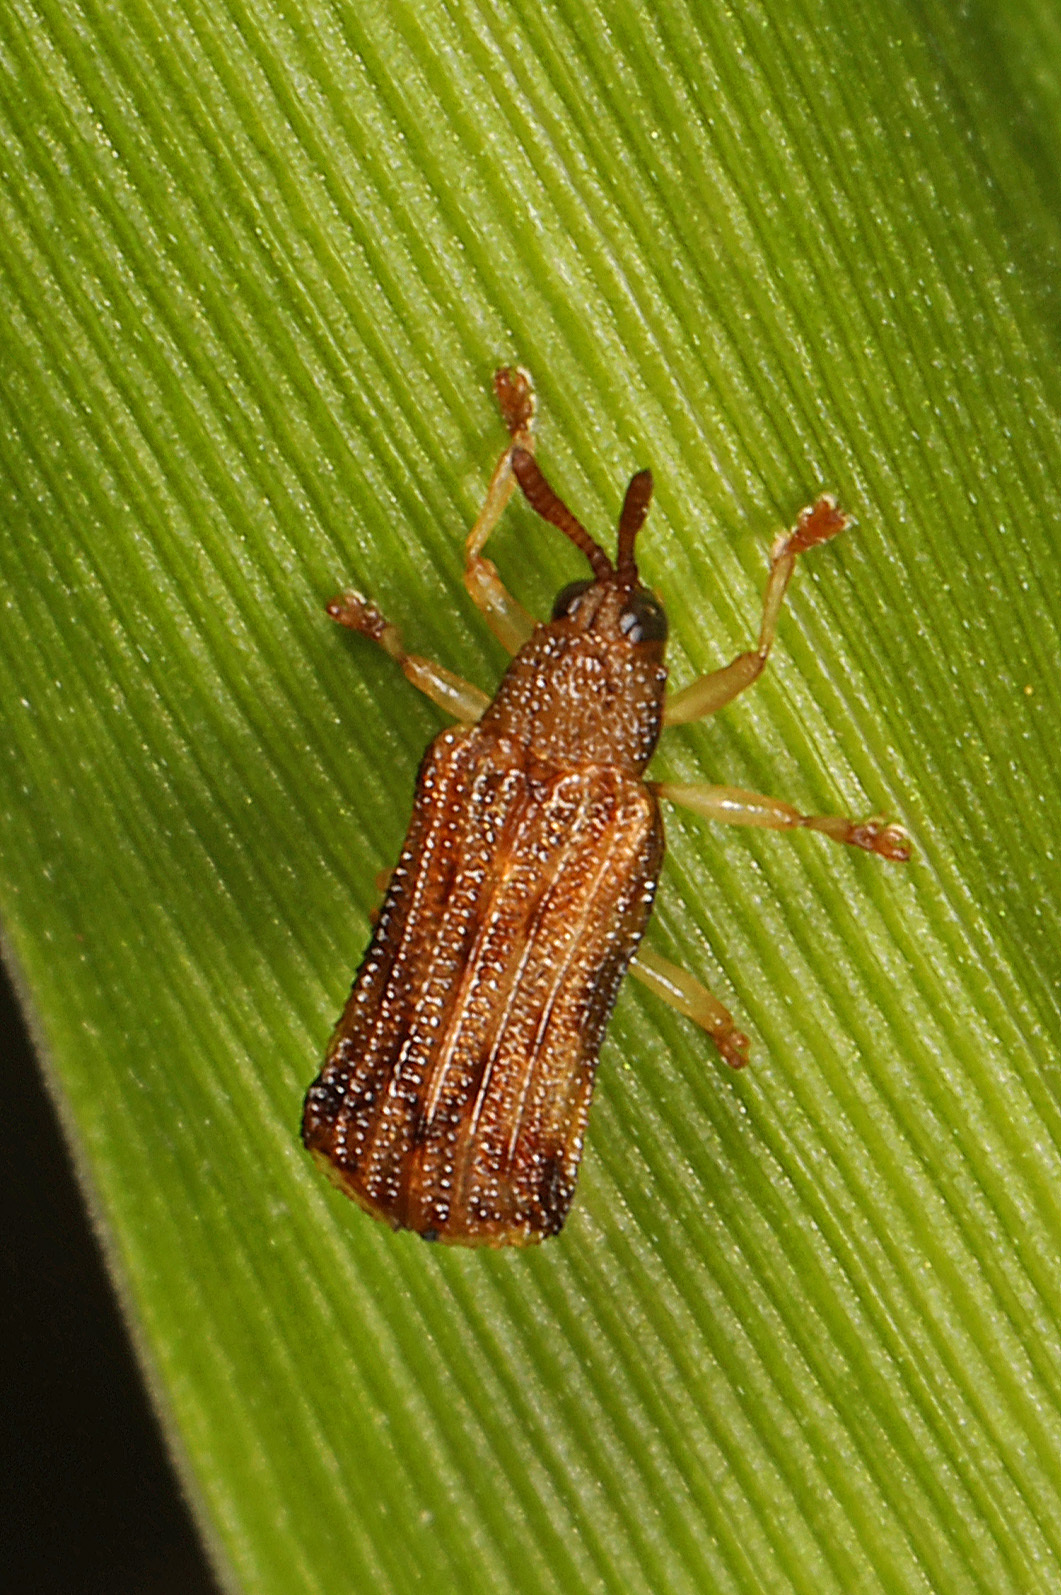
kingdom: Animalia
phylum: Arthropoda
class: Insecta
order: Coleoptera
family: Chrysomelidae
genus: Sumitrosis
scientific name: Sumitrosis rosea
